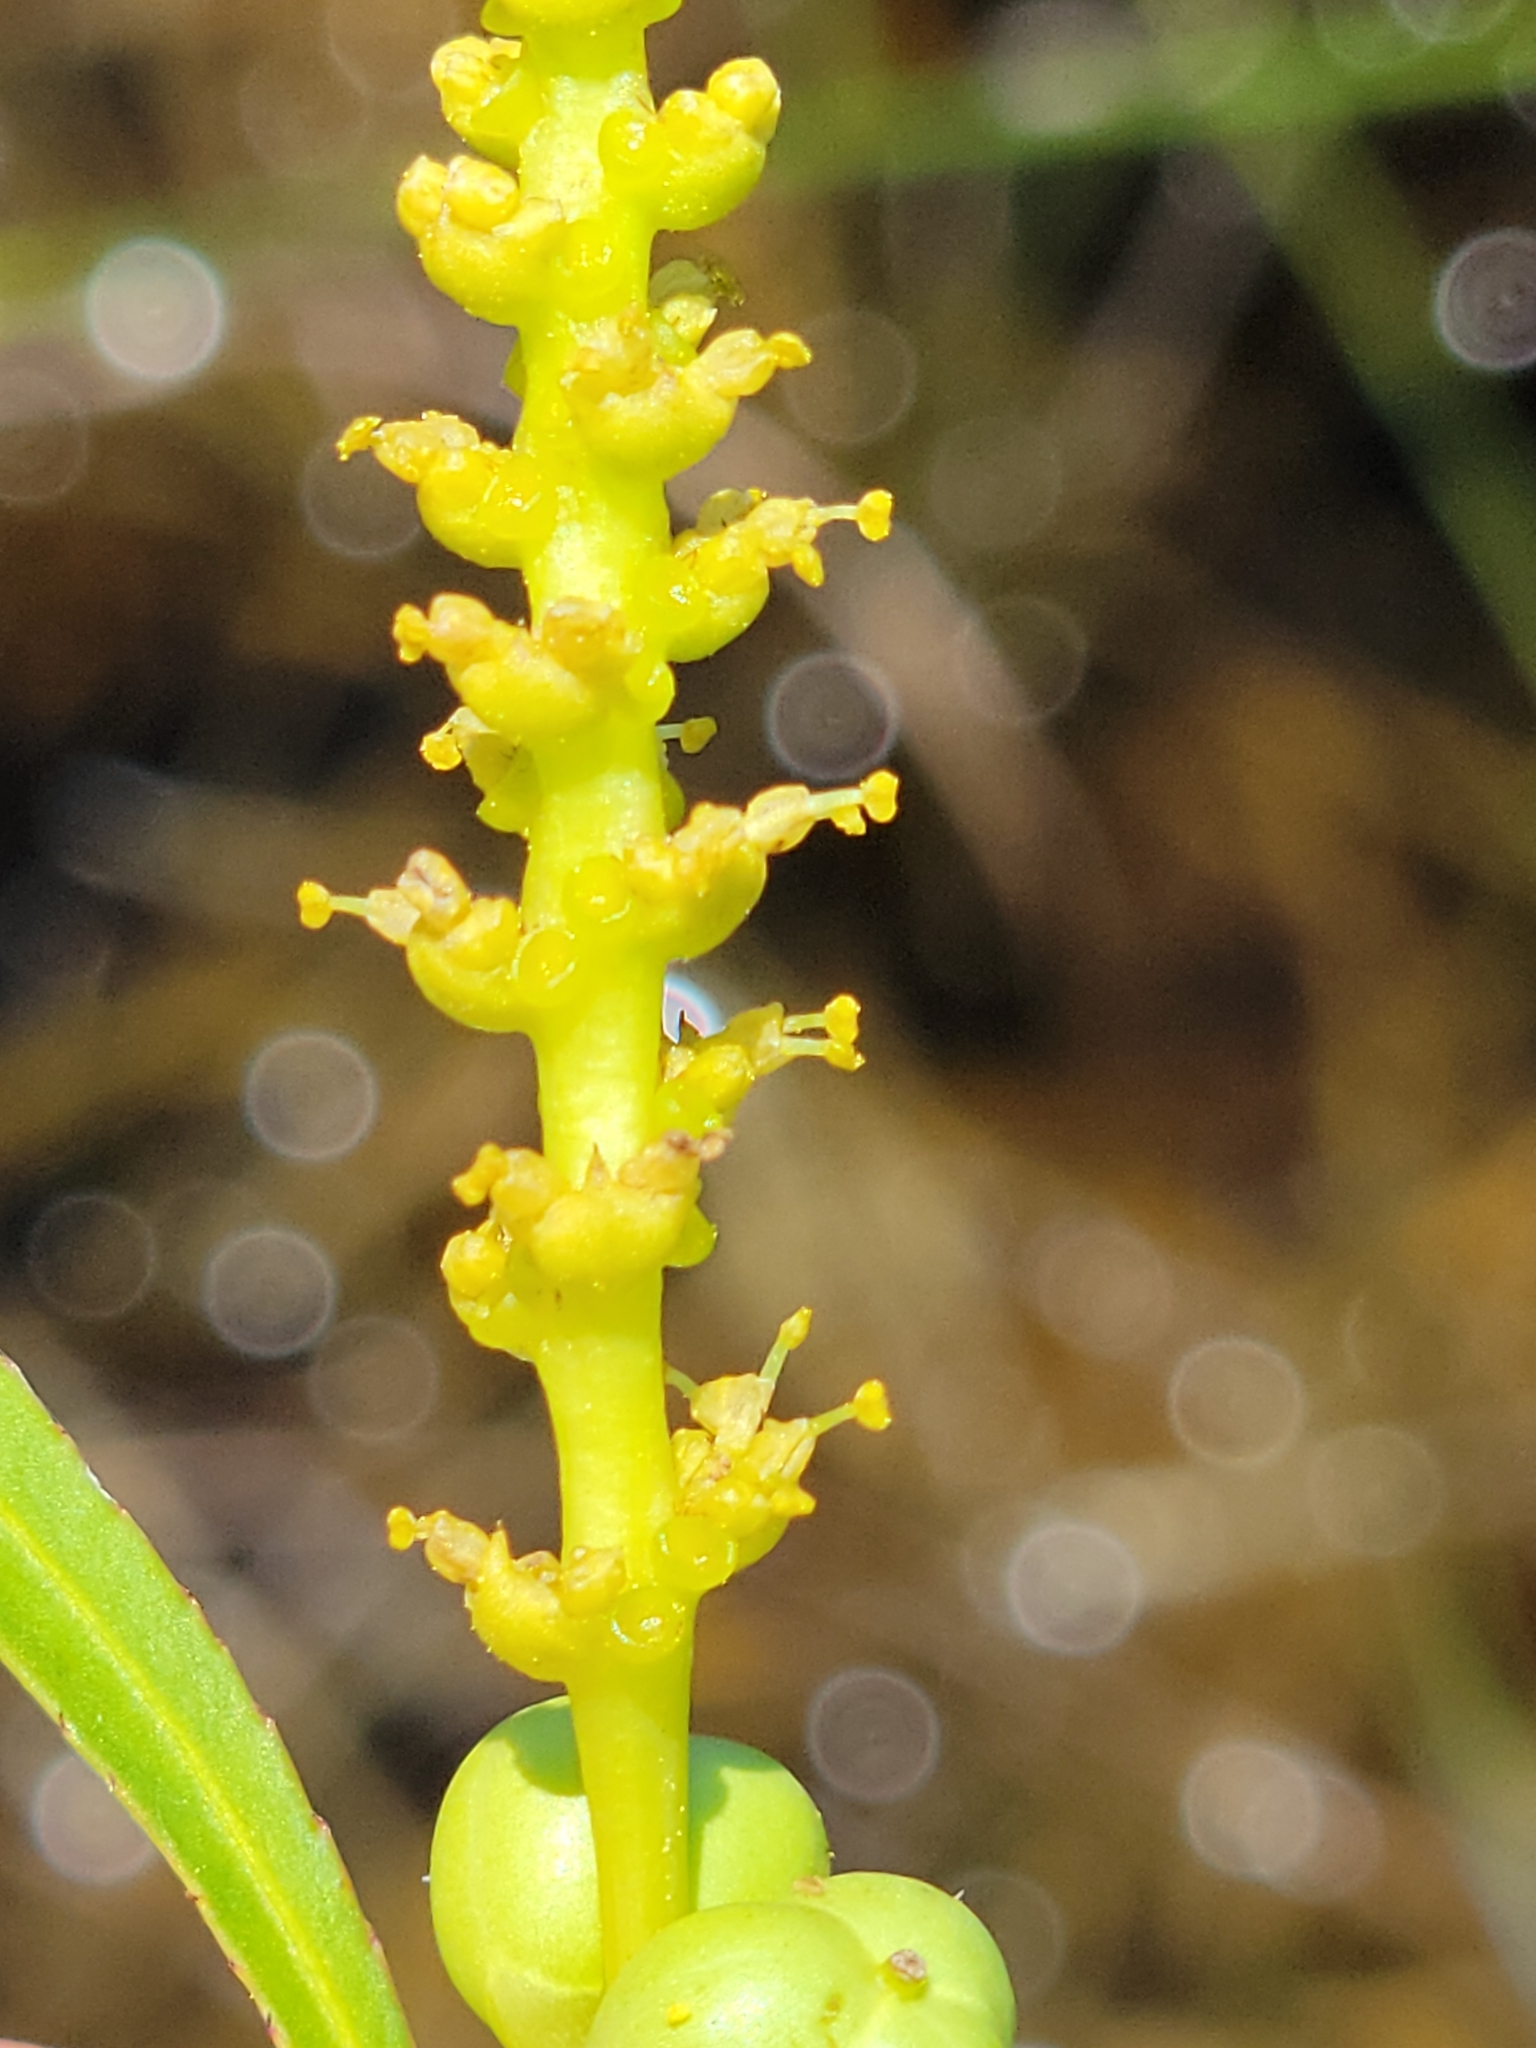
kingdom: Plantae
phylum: Tracheophyta
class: Magnoliopsida
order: Malpighiales
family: Euphorbiaceae
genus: Stillingia
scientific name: Stillingia aquatica
